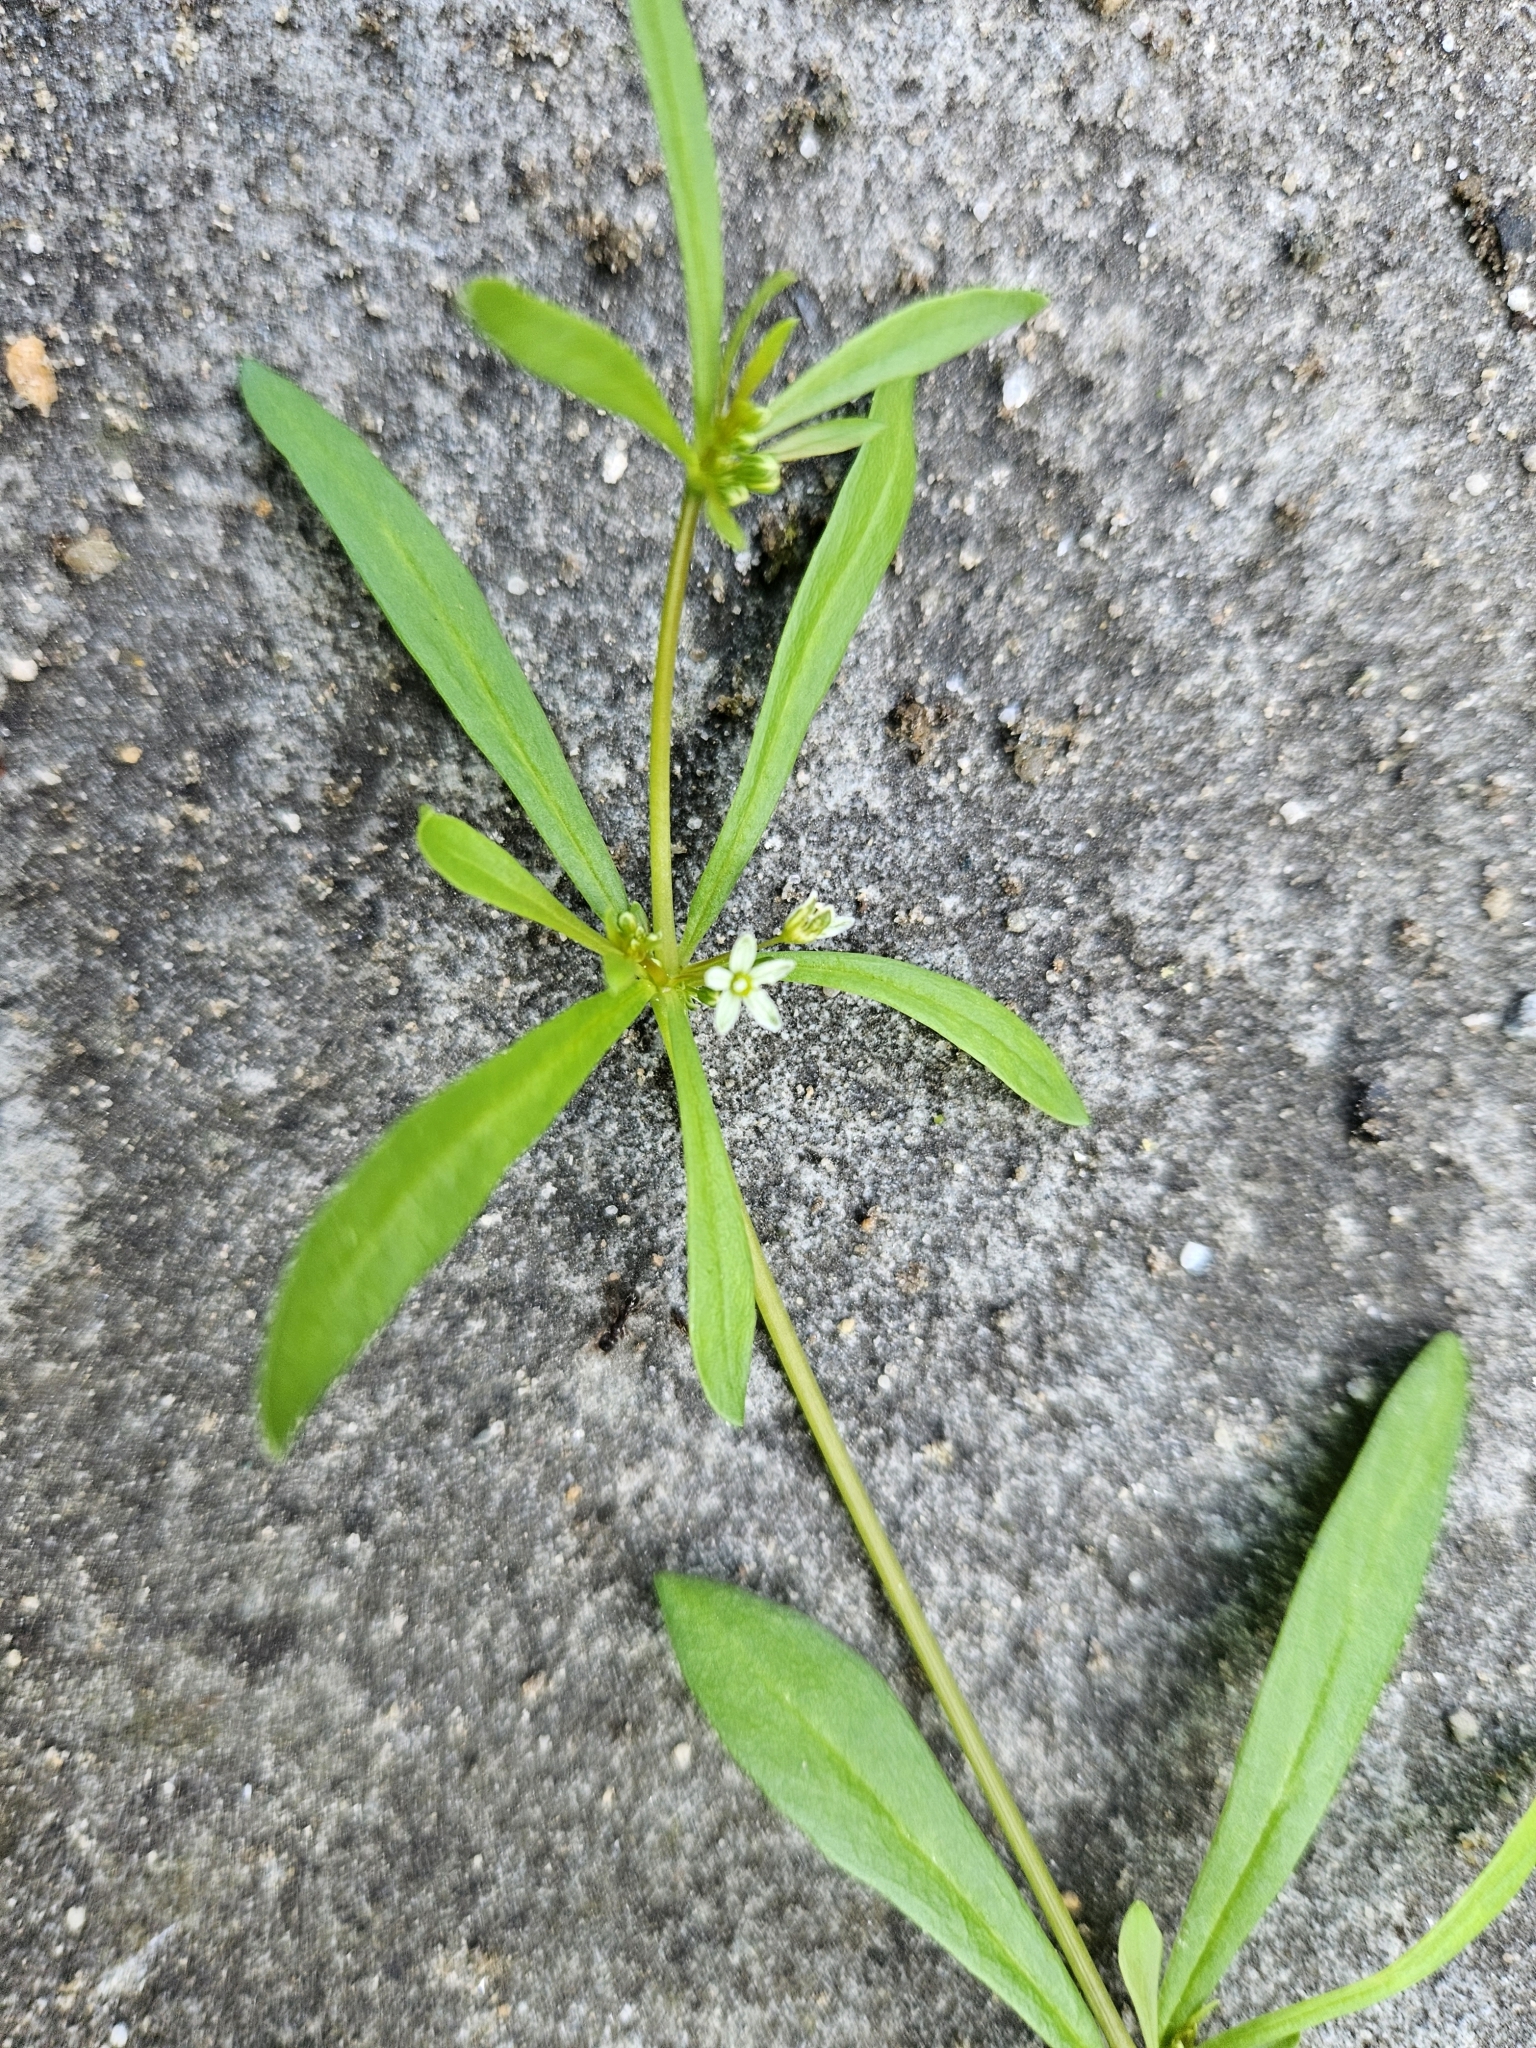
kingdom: Plantae
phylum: Tracheophyta
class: Magnoliopsida
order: Caryophyllales
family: Molluginaceae
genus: Mollugo
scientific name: Mollugo verticillata
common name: Green carpetweed
